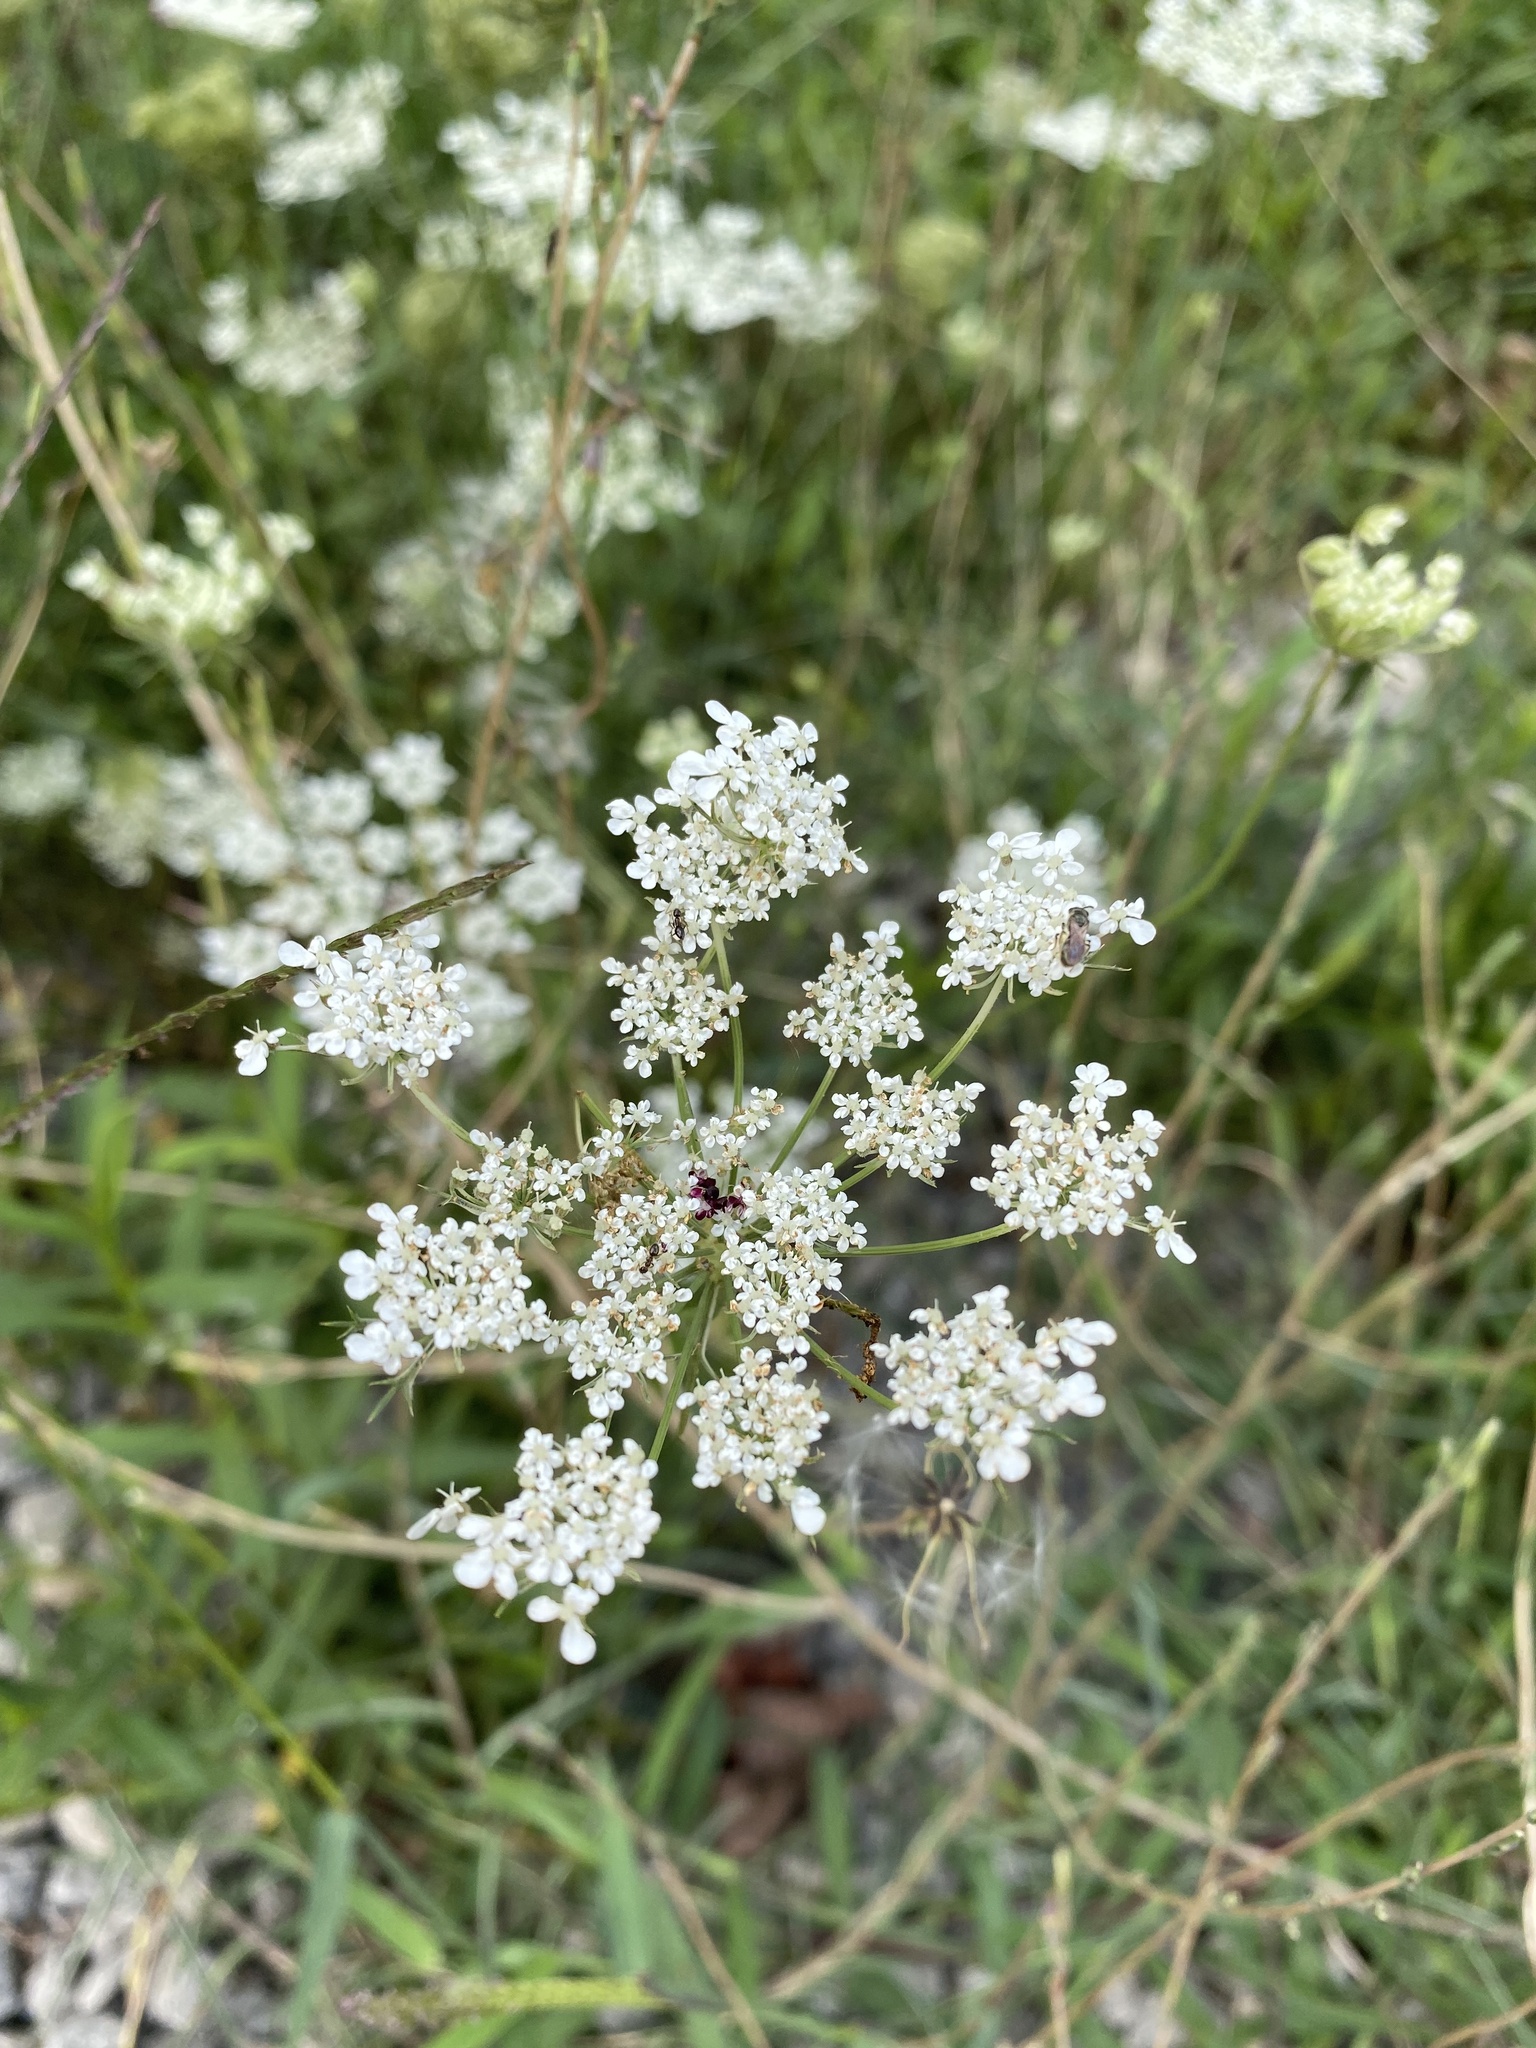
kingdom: Plantae
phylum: Tracheophyta
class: Magnoliopsida
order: Apiales
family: Apiaceae
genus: Daucus
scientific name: Daucus carota
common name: Wild carrot
